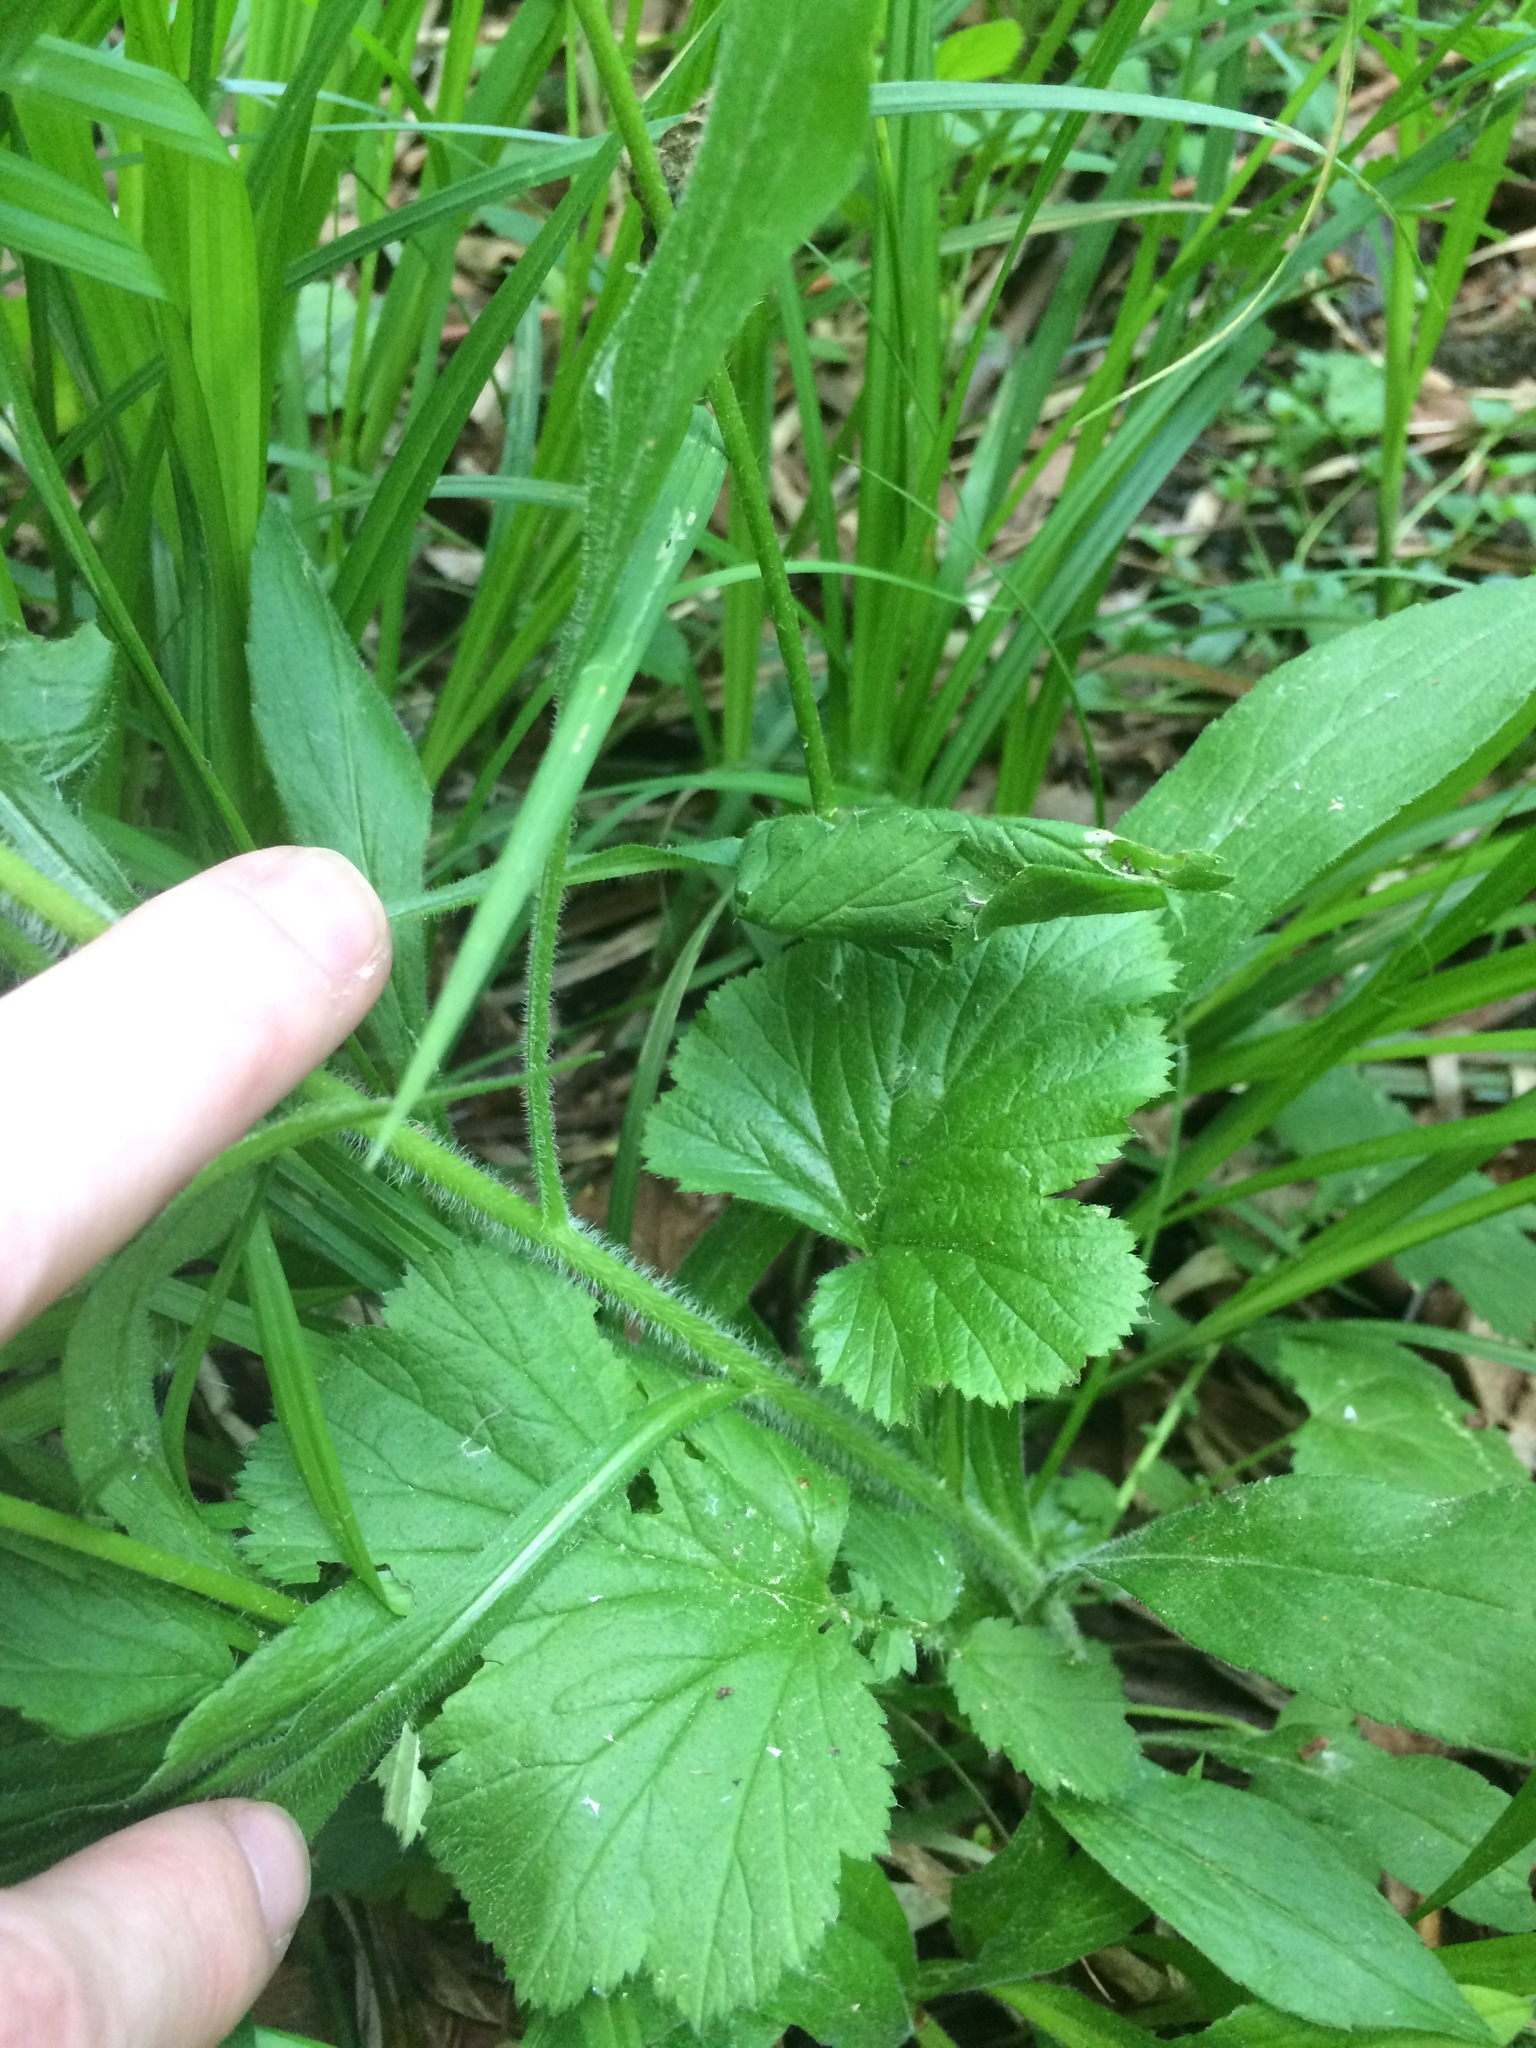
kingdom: Plantae
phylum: Tracheophyta
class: Magnoliopsida
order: Rosales
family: Rosaceae
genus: Geum
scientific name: Geum macrophyllum
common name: Large-leaved avens
